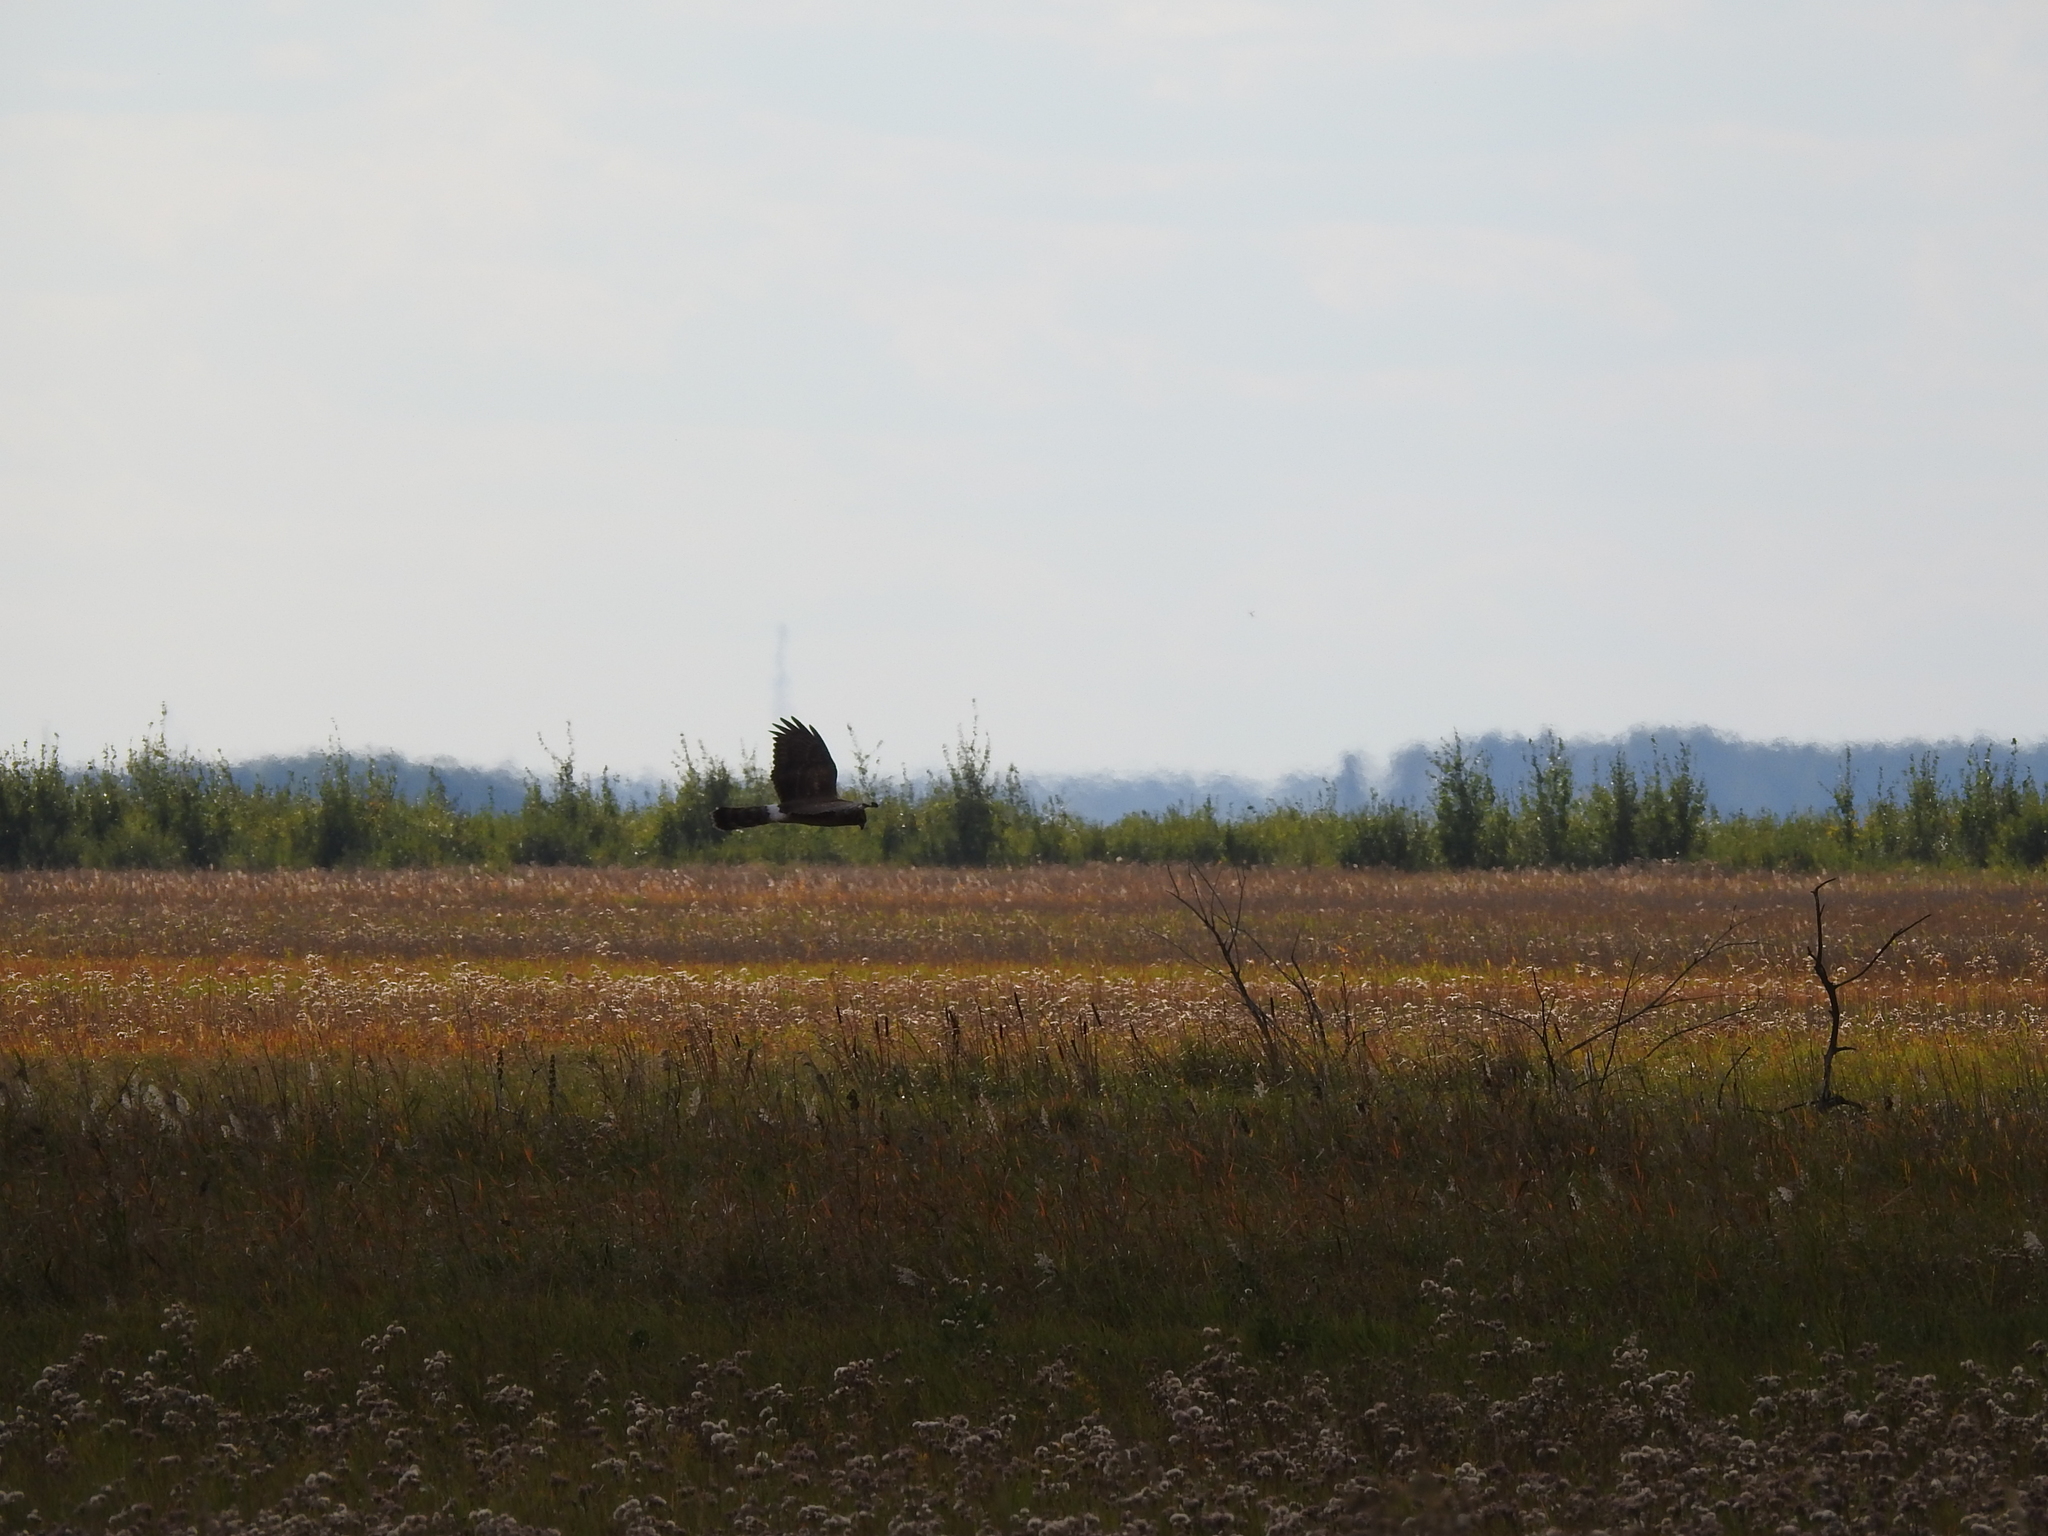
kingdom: Animalia
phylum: Chordata
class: Aves
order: Accipitriformes
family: Accipitridae
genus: Circus
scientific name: Circus cyaneus
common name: Hen harrier
